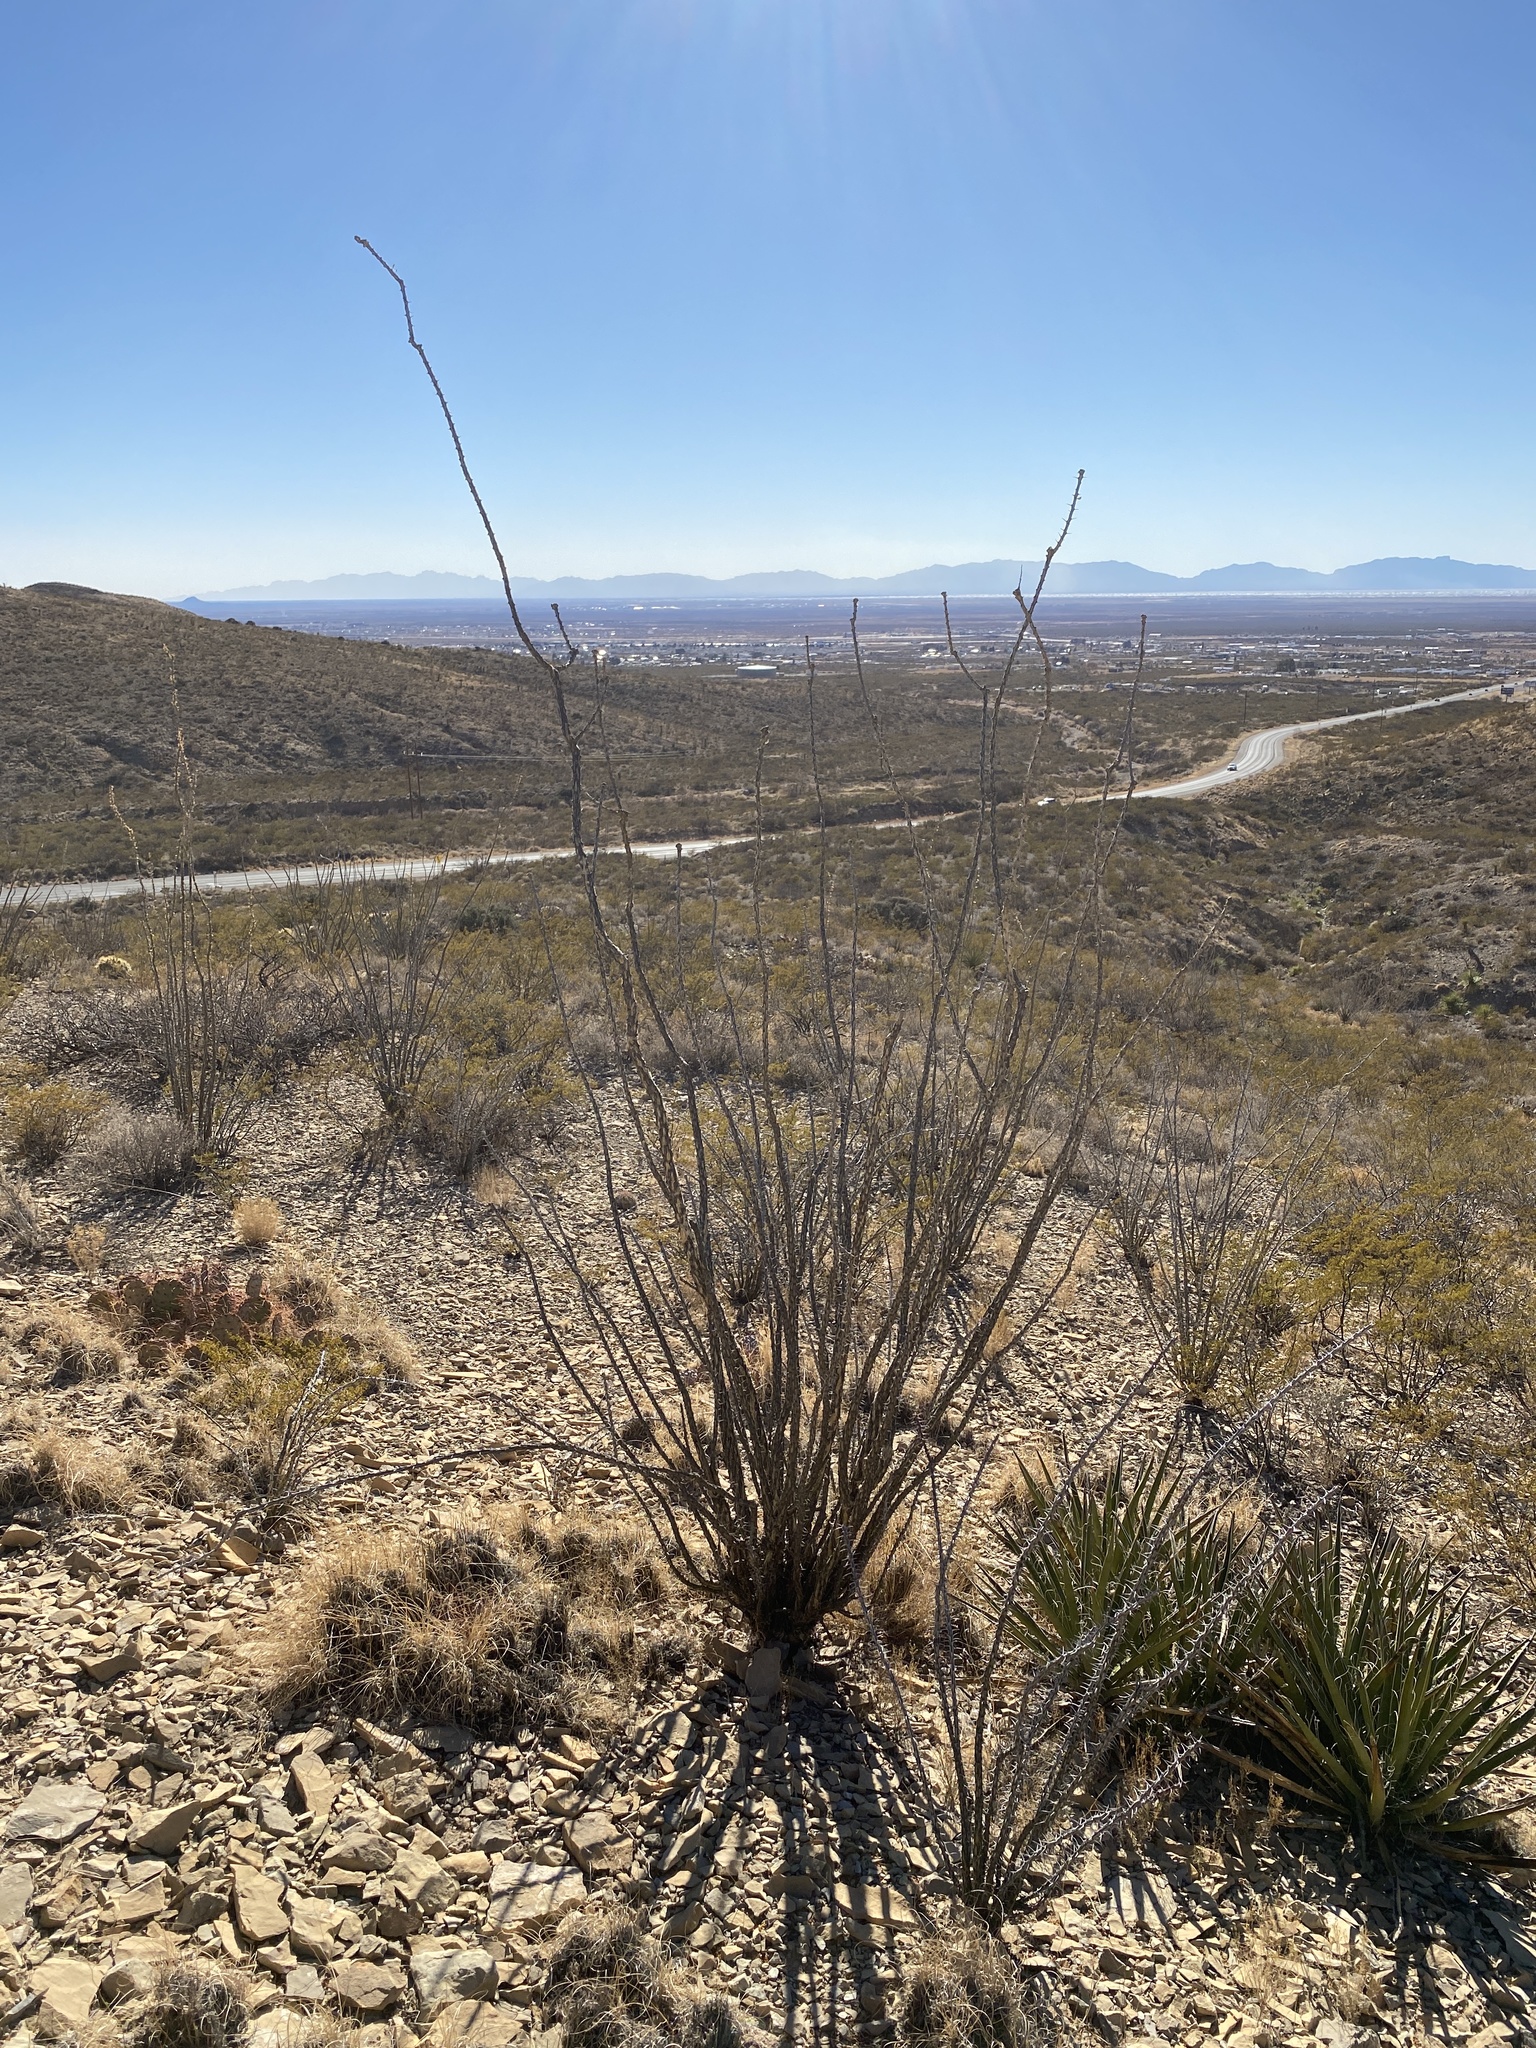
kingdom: Plantae
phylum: Tracheophyta
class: Magnoliopsida
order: Ericales
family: Fouquieriaceae
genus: Fouquieria
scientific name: Fouquieria splendens
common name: Vine-cactus
